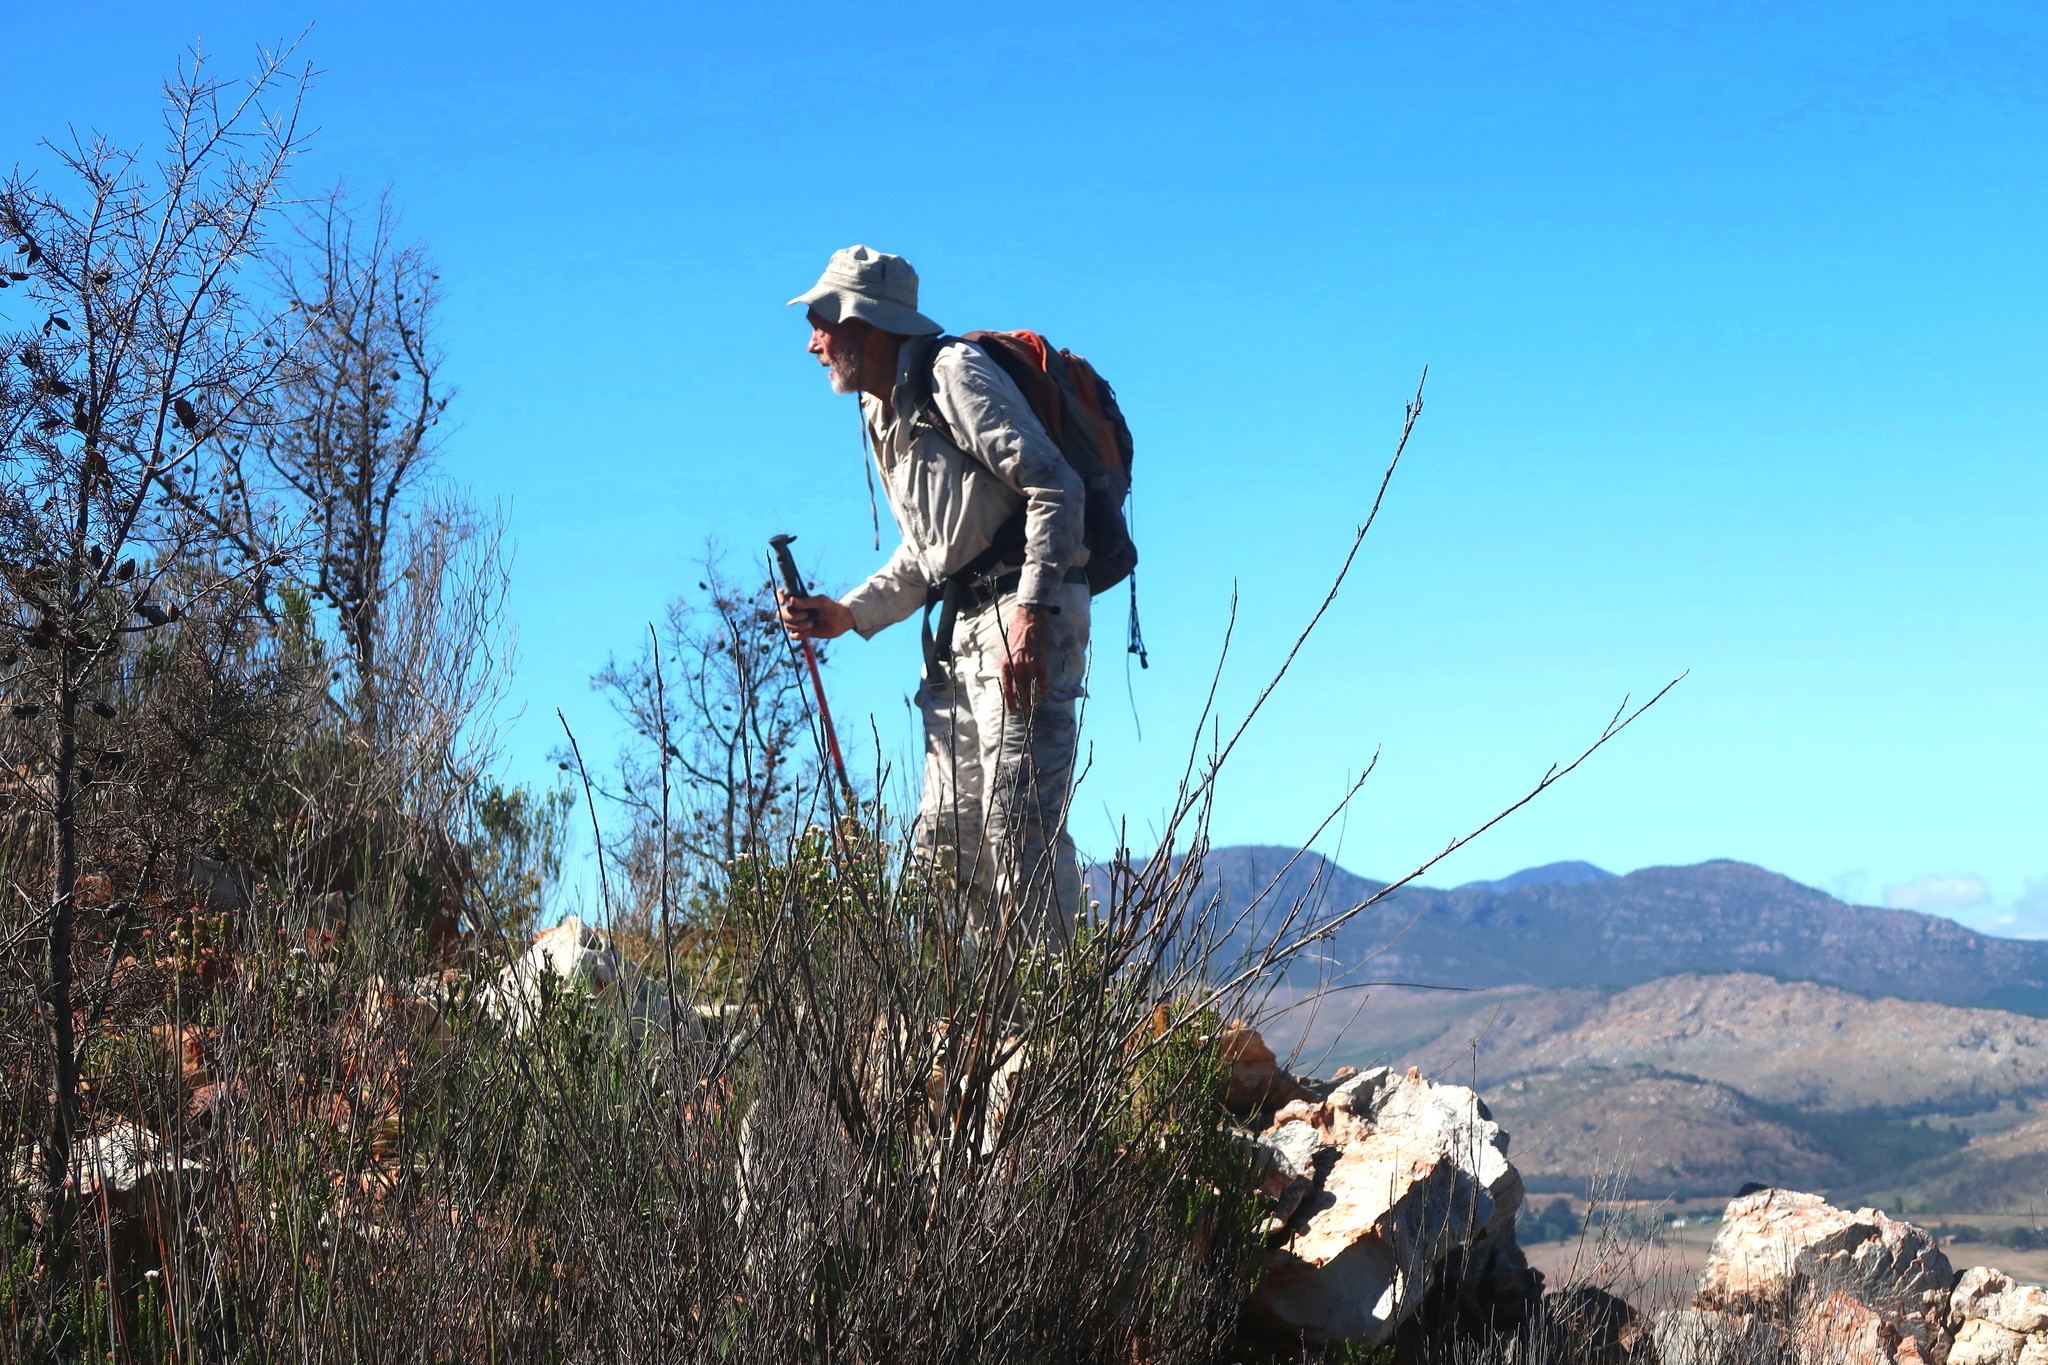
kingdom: Plantae
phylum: Tracheophyta
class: Magnoliopsida
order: Proteales
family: Proteaceae
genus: Hakea
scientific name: Hakea sericea
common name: Needle bush
